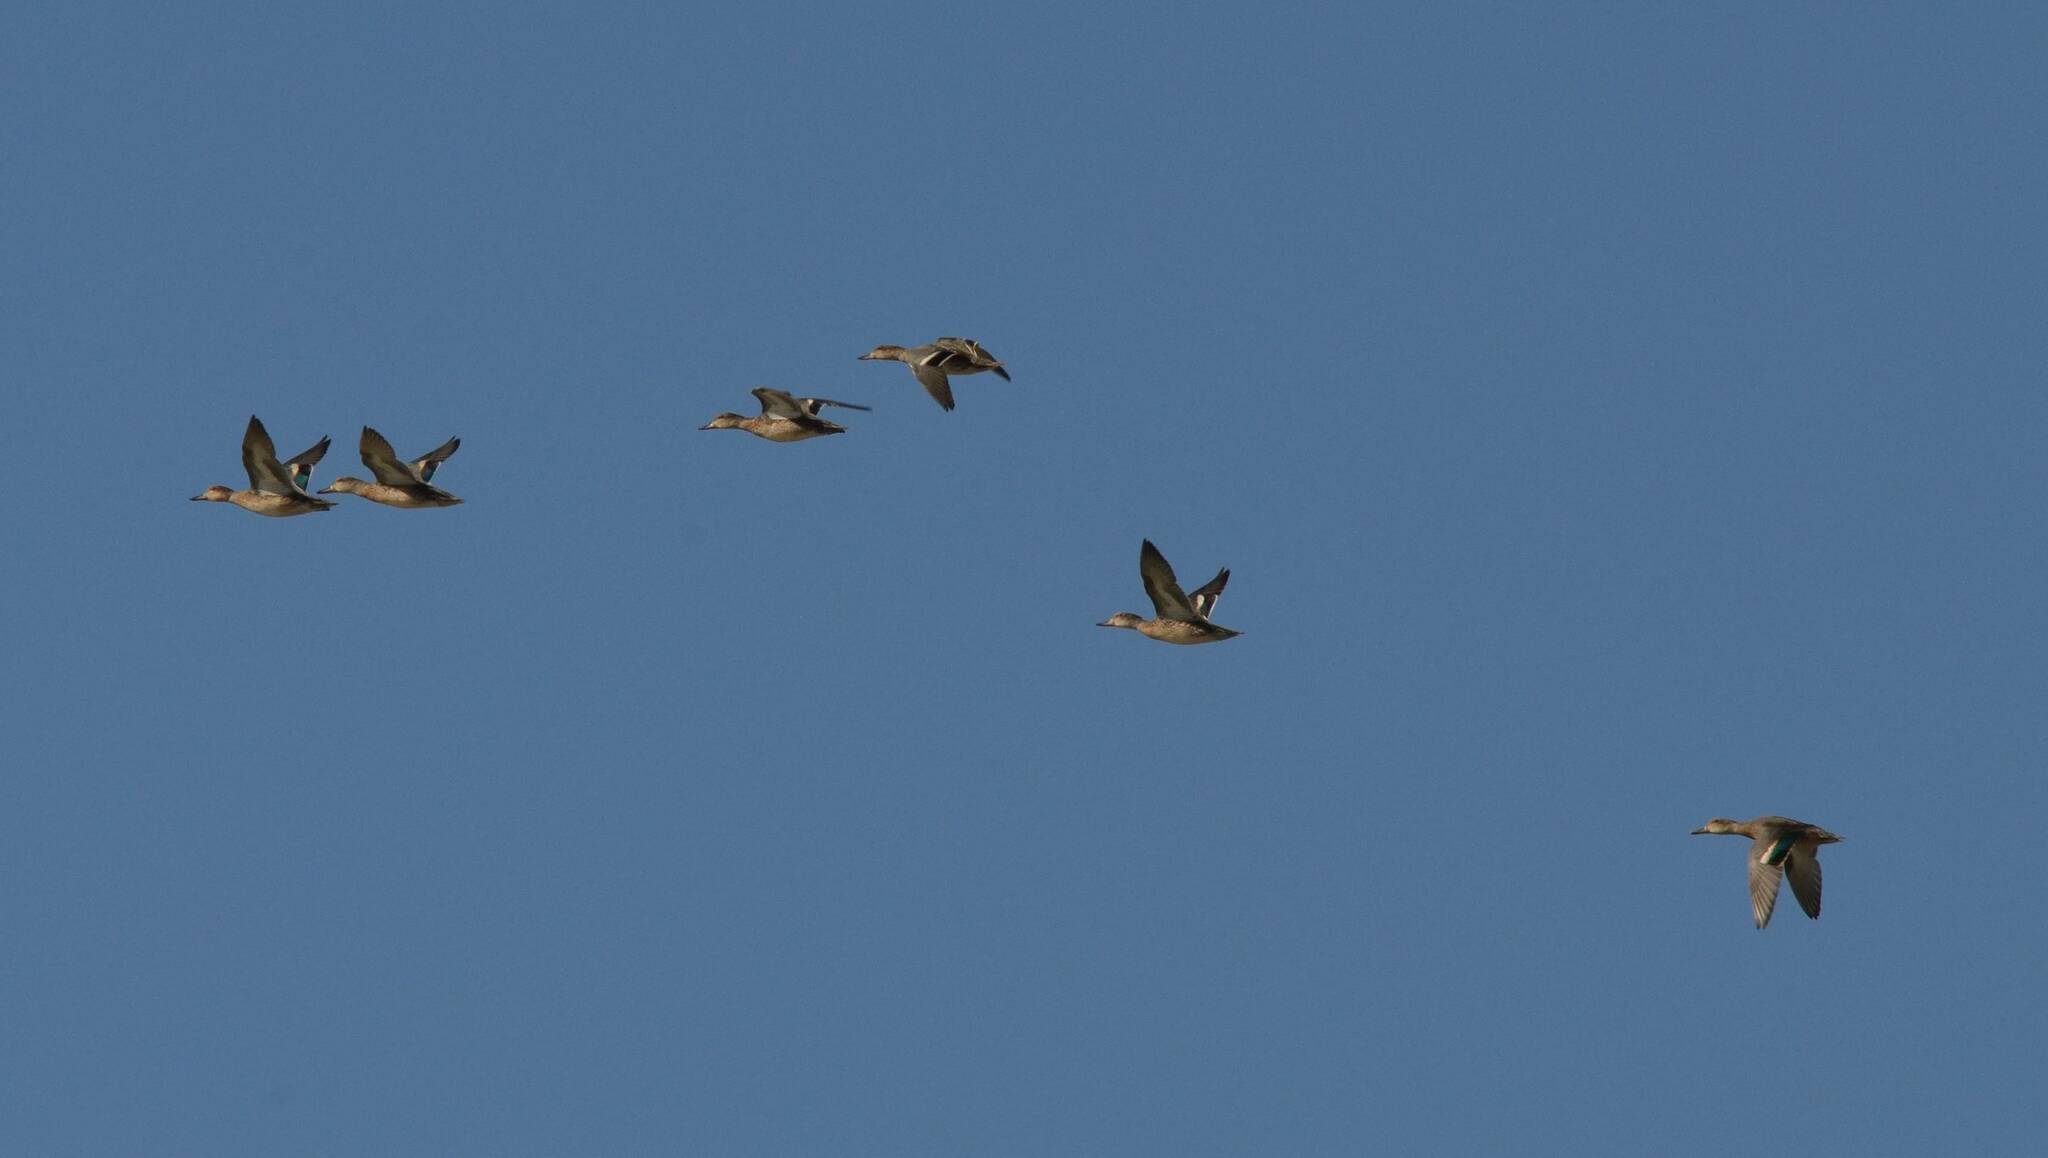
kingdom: Animalia
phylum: Chordata
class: Aves
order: Anseriformes
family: Anatidae
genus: Anas
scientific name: Anas crecca
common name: Eurasian teal
